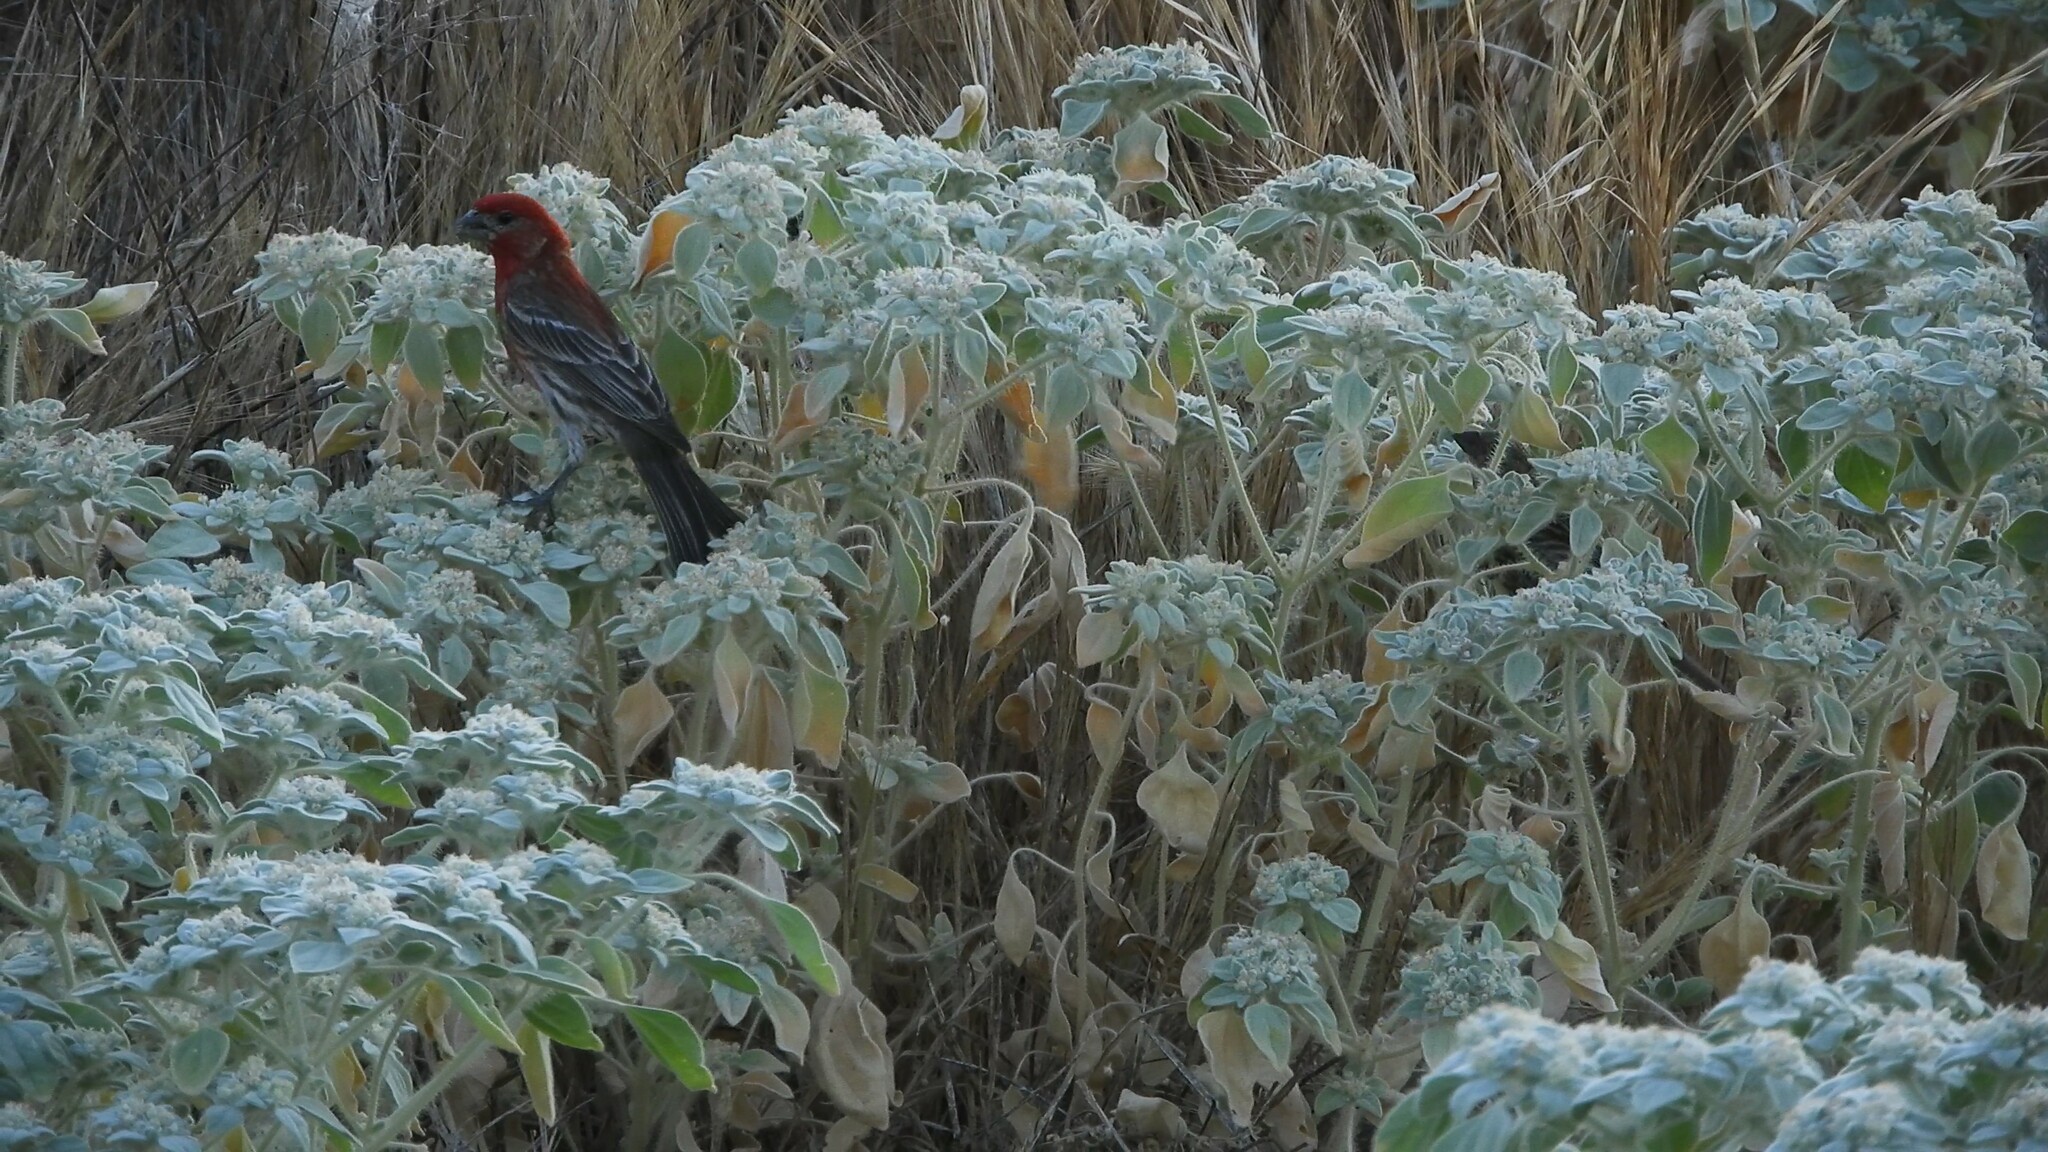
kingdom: Plantae
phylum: Tracheophyta
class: Magnoliopsida
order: Malpighiales
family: Euphorbiaceae
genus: Croton
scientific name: Croton setiger
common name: Dove weed
